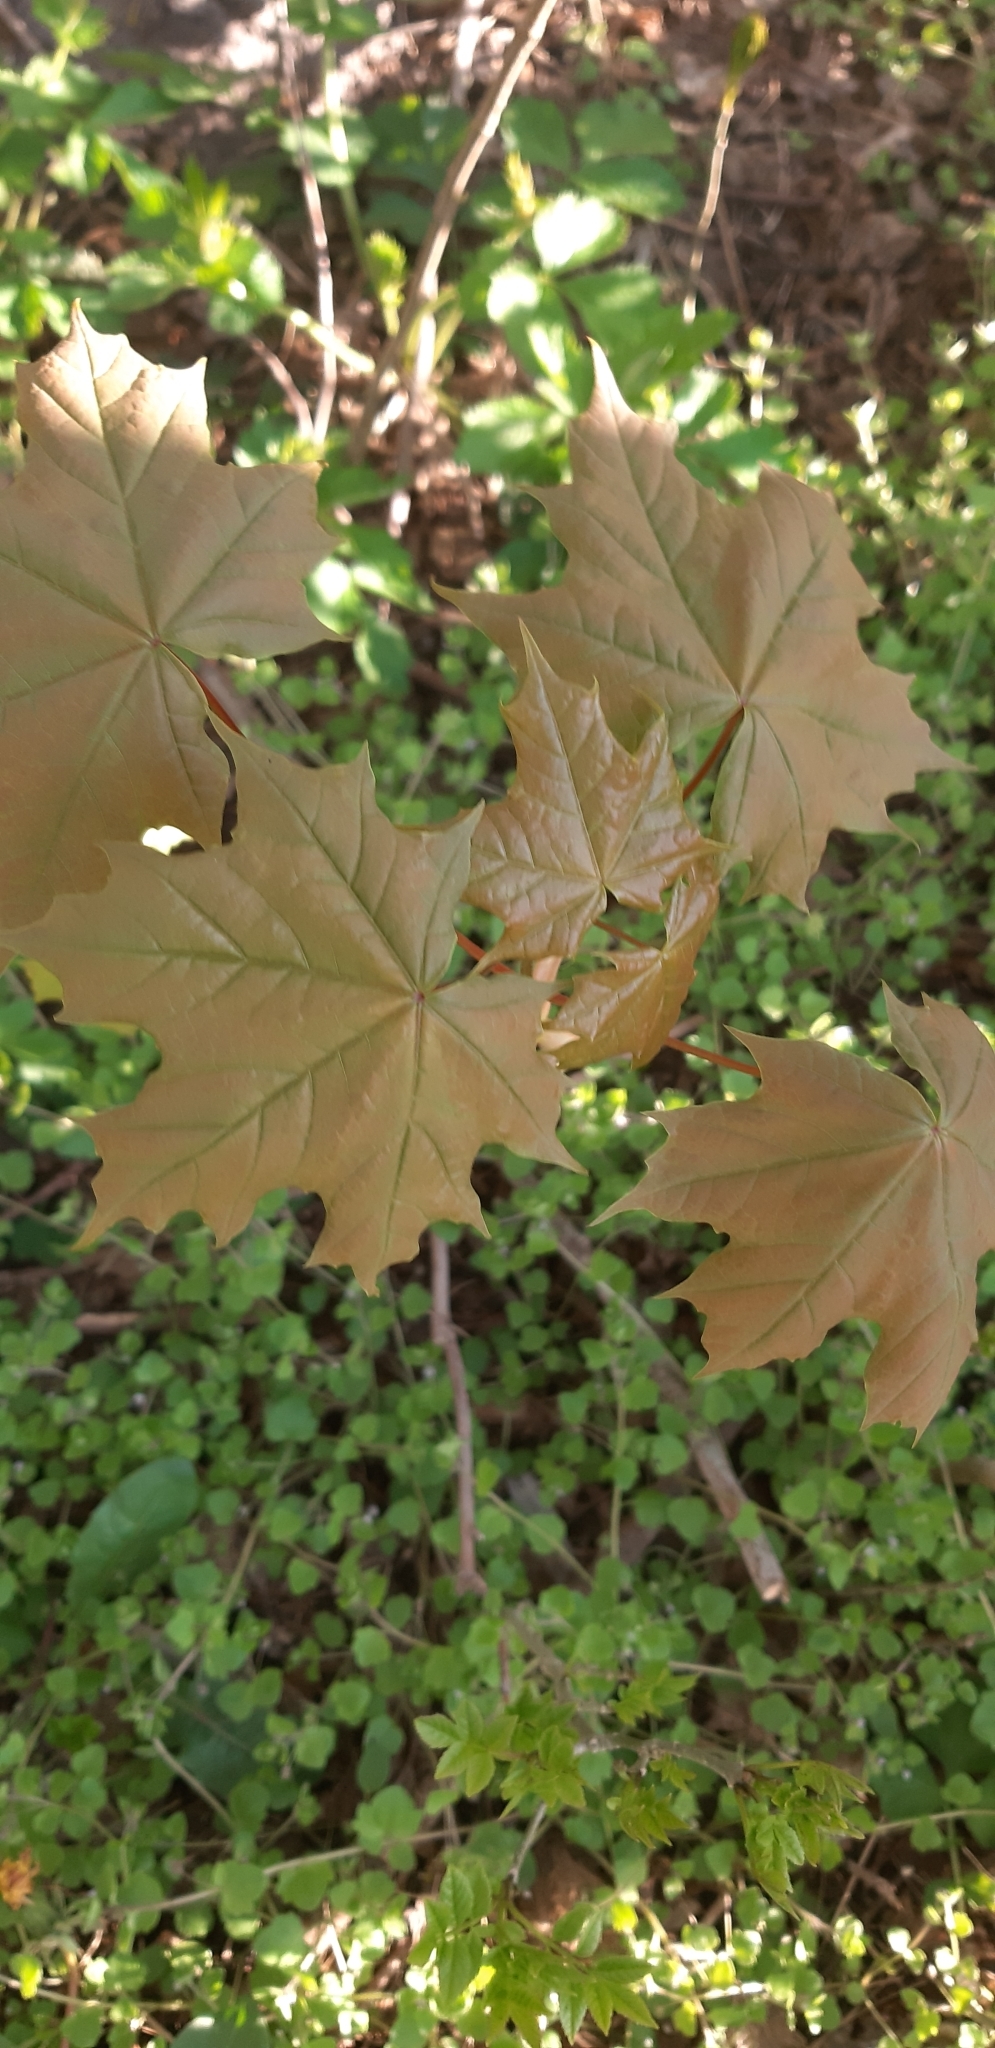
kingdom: Plantae
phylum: Tracheophyta
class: Magnoliopsida
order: Sapindales
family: Sapindaceae
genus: Acer
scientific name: Acer platanoides
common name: Norway maple
